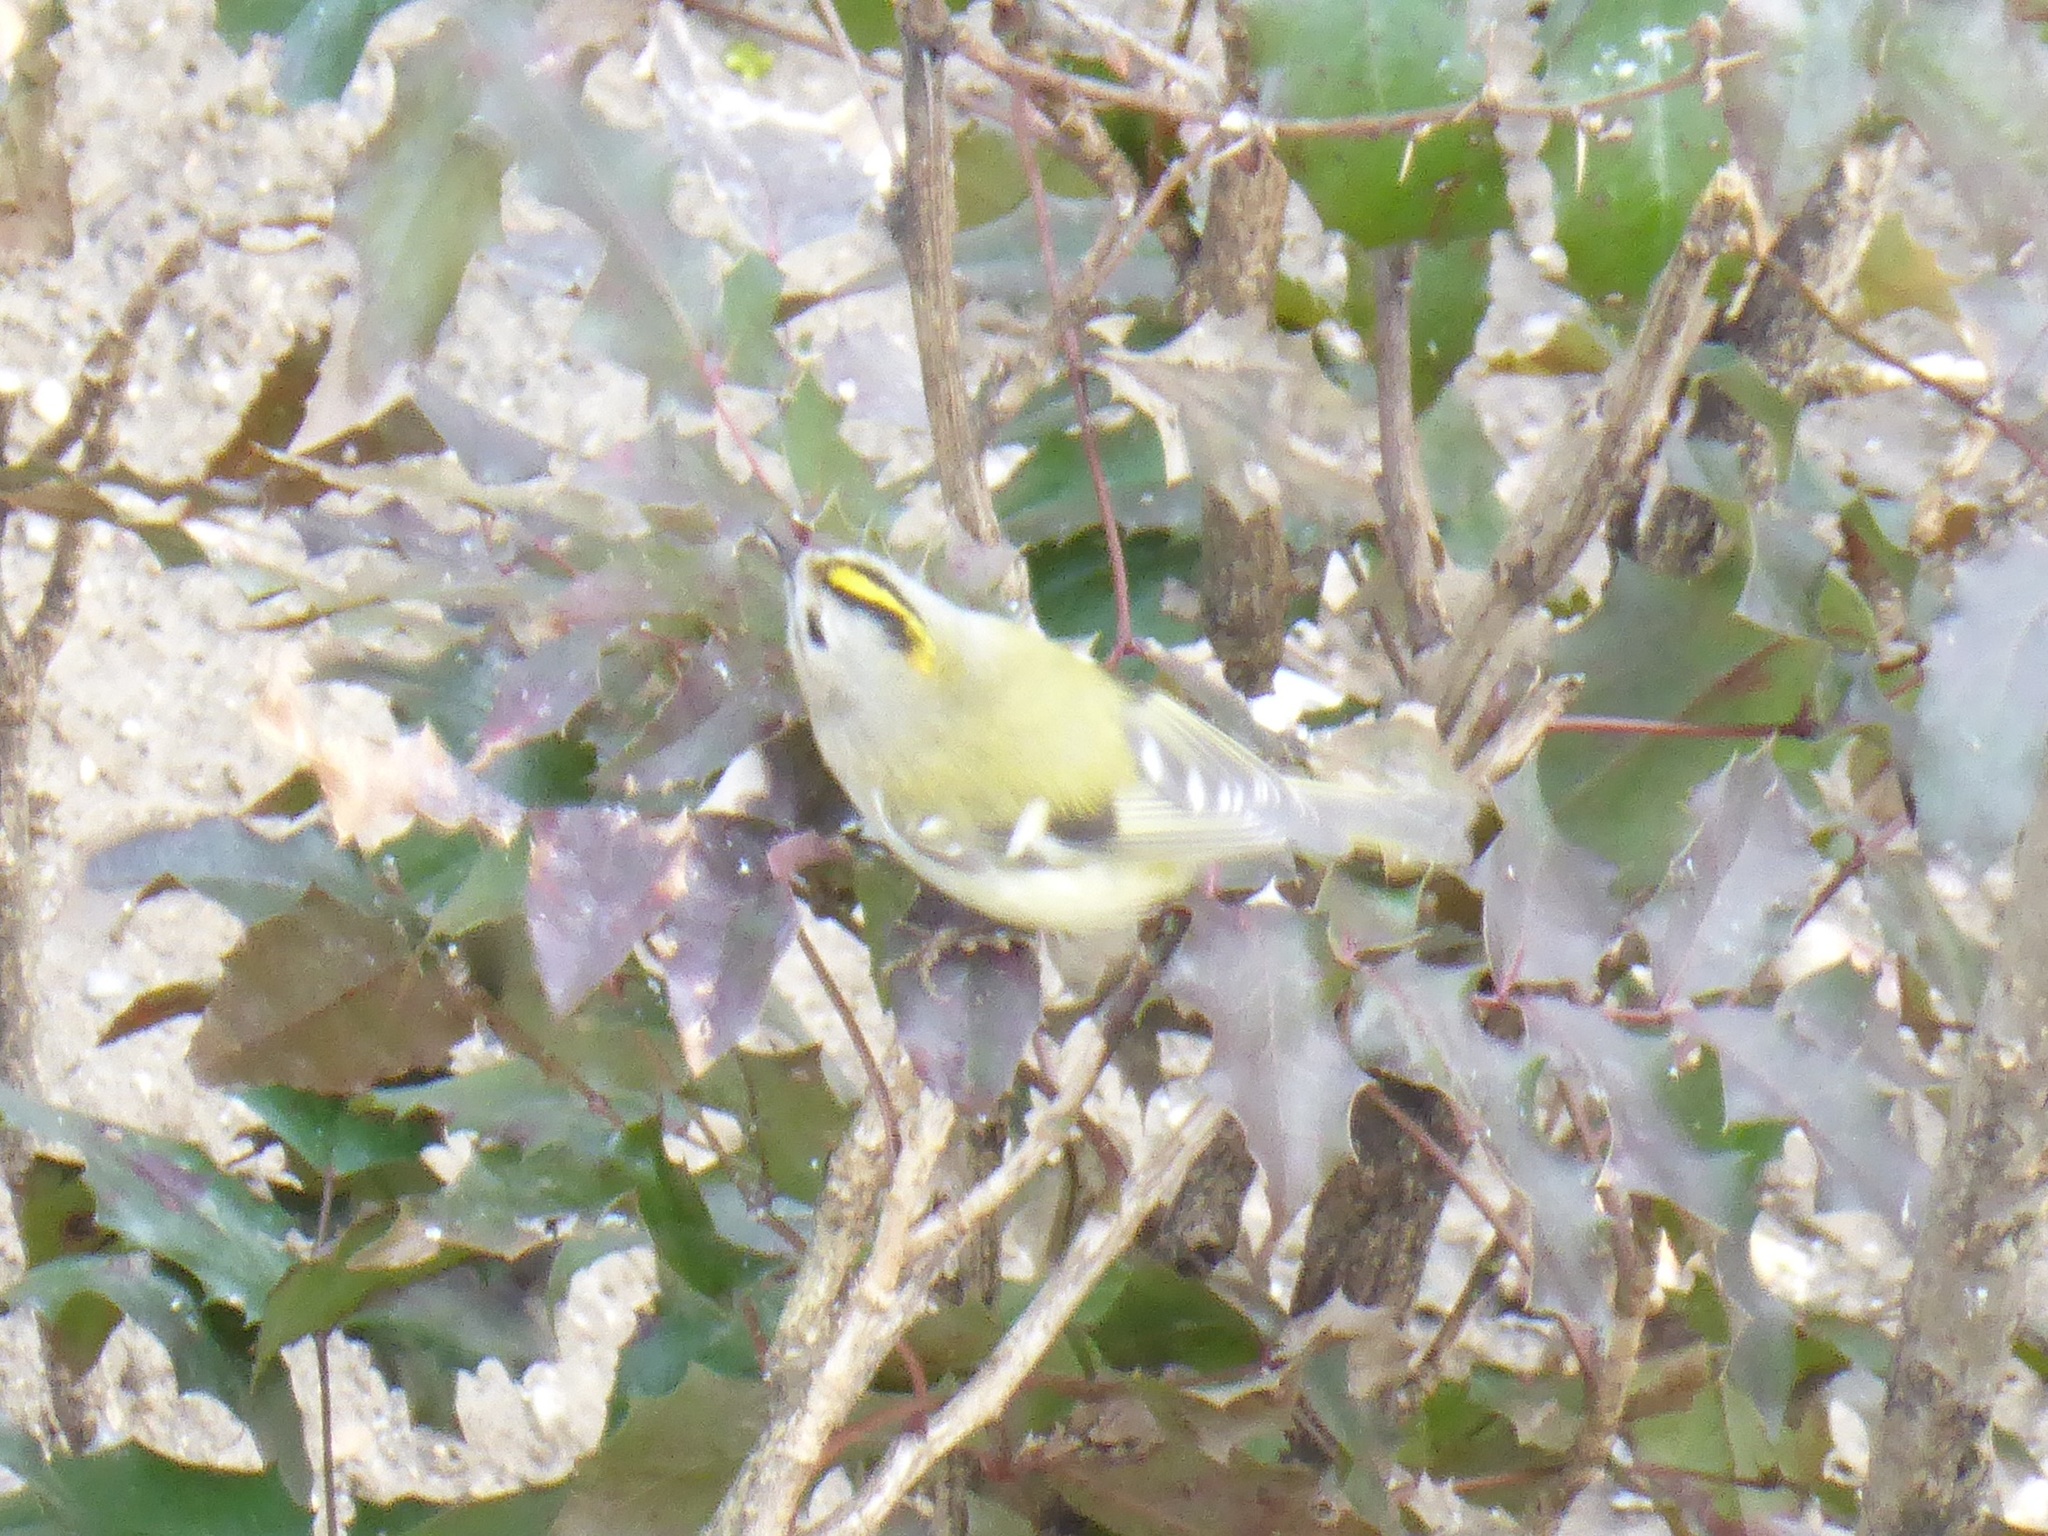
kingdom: Animalia
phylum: Chordata
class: Aves
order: Passeriformes
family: Regulidae
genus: Regulus
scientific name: Regulus regulus
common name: Goldcrest
